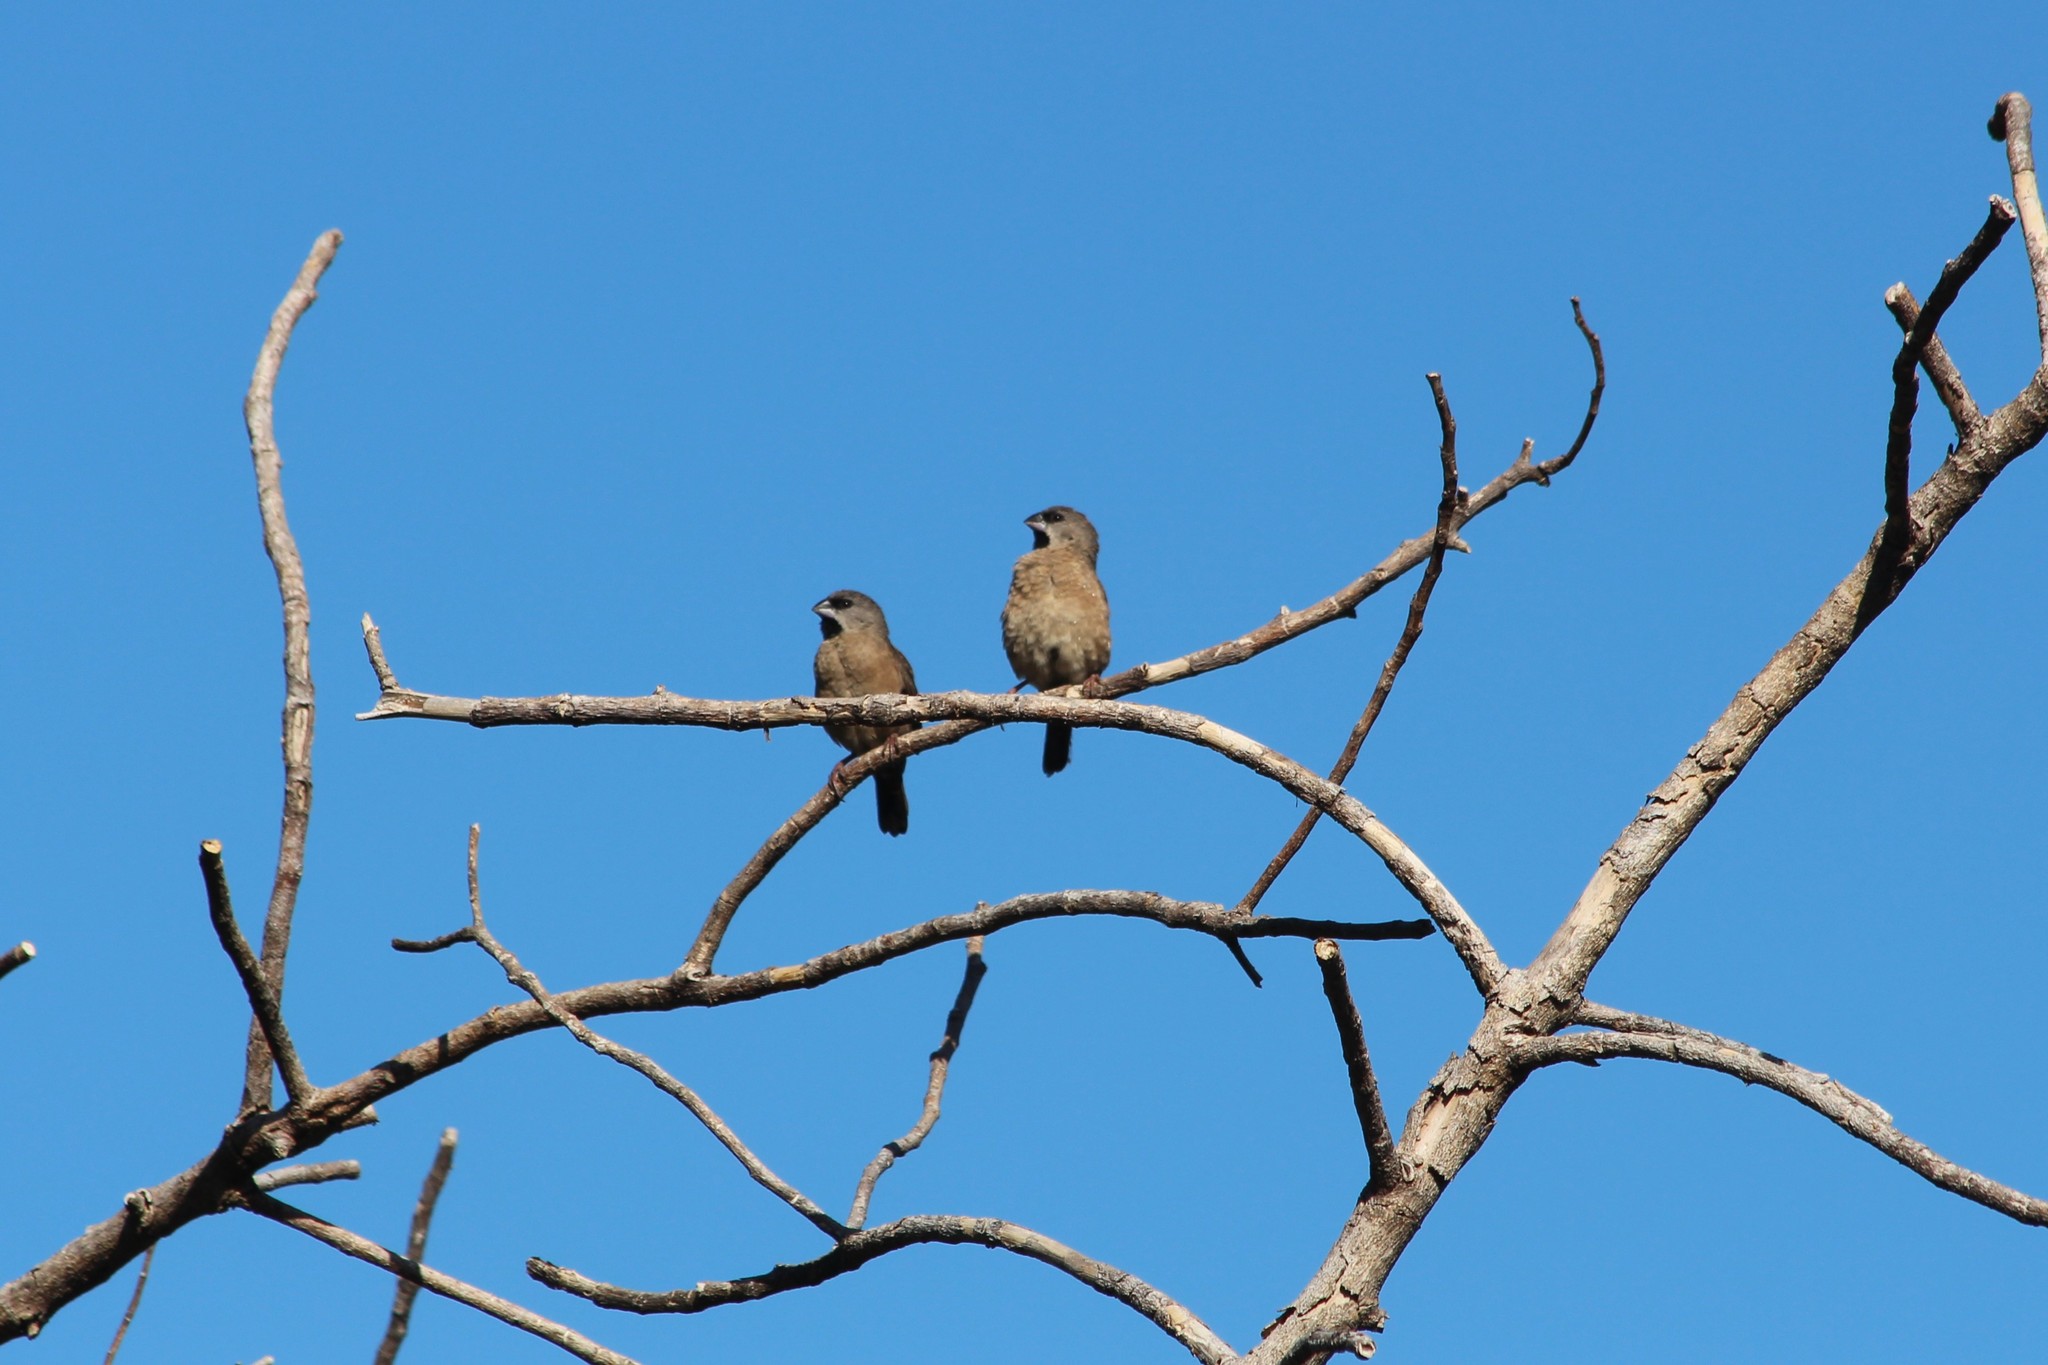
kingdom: Animalia
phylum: Chordata
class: Aves
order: Passeriformes
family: Estrildidae
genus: Lemuresthes
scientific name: Lemuresthes nana
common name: Madagascar mannikin
